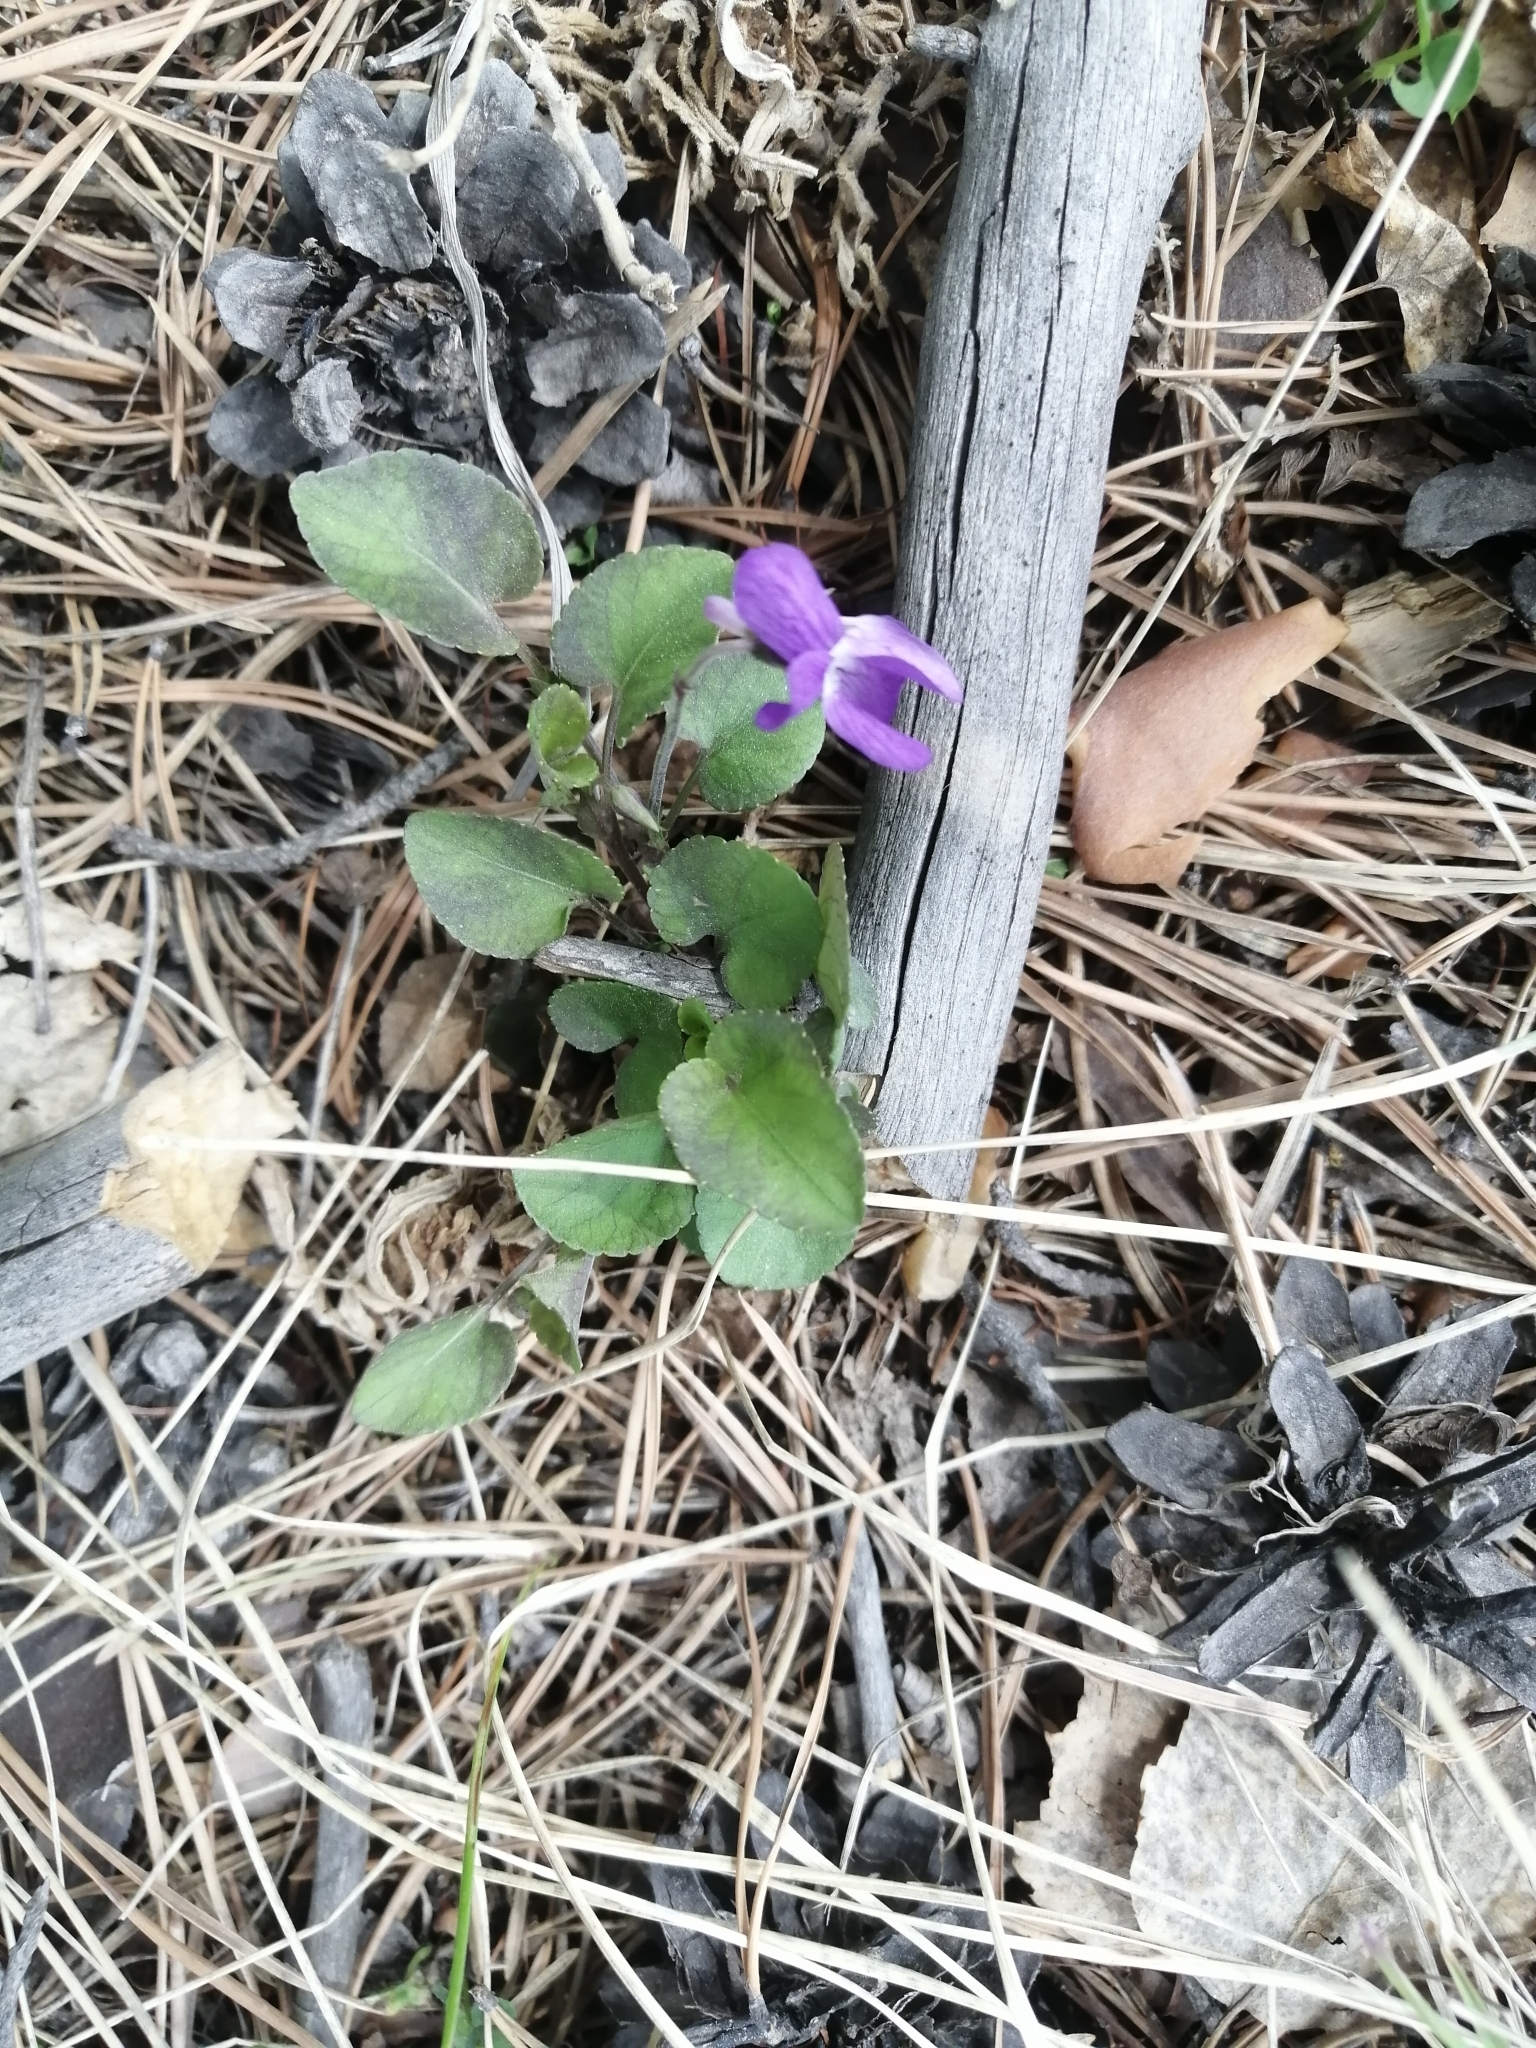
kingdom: Plantae
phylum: Tracheophyta
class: Magnoliopsida
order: Malpighiales
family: Violaceae
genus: Viola
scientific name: Viola rupestris
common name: Teesdale violet
